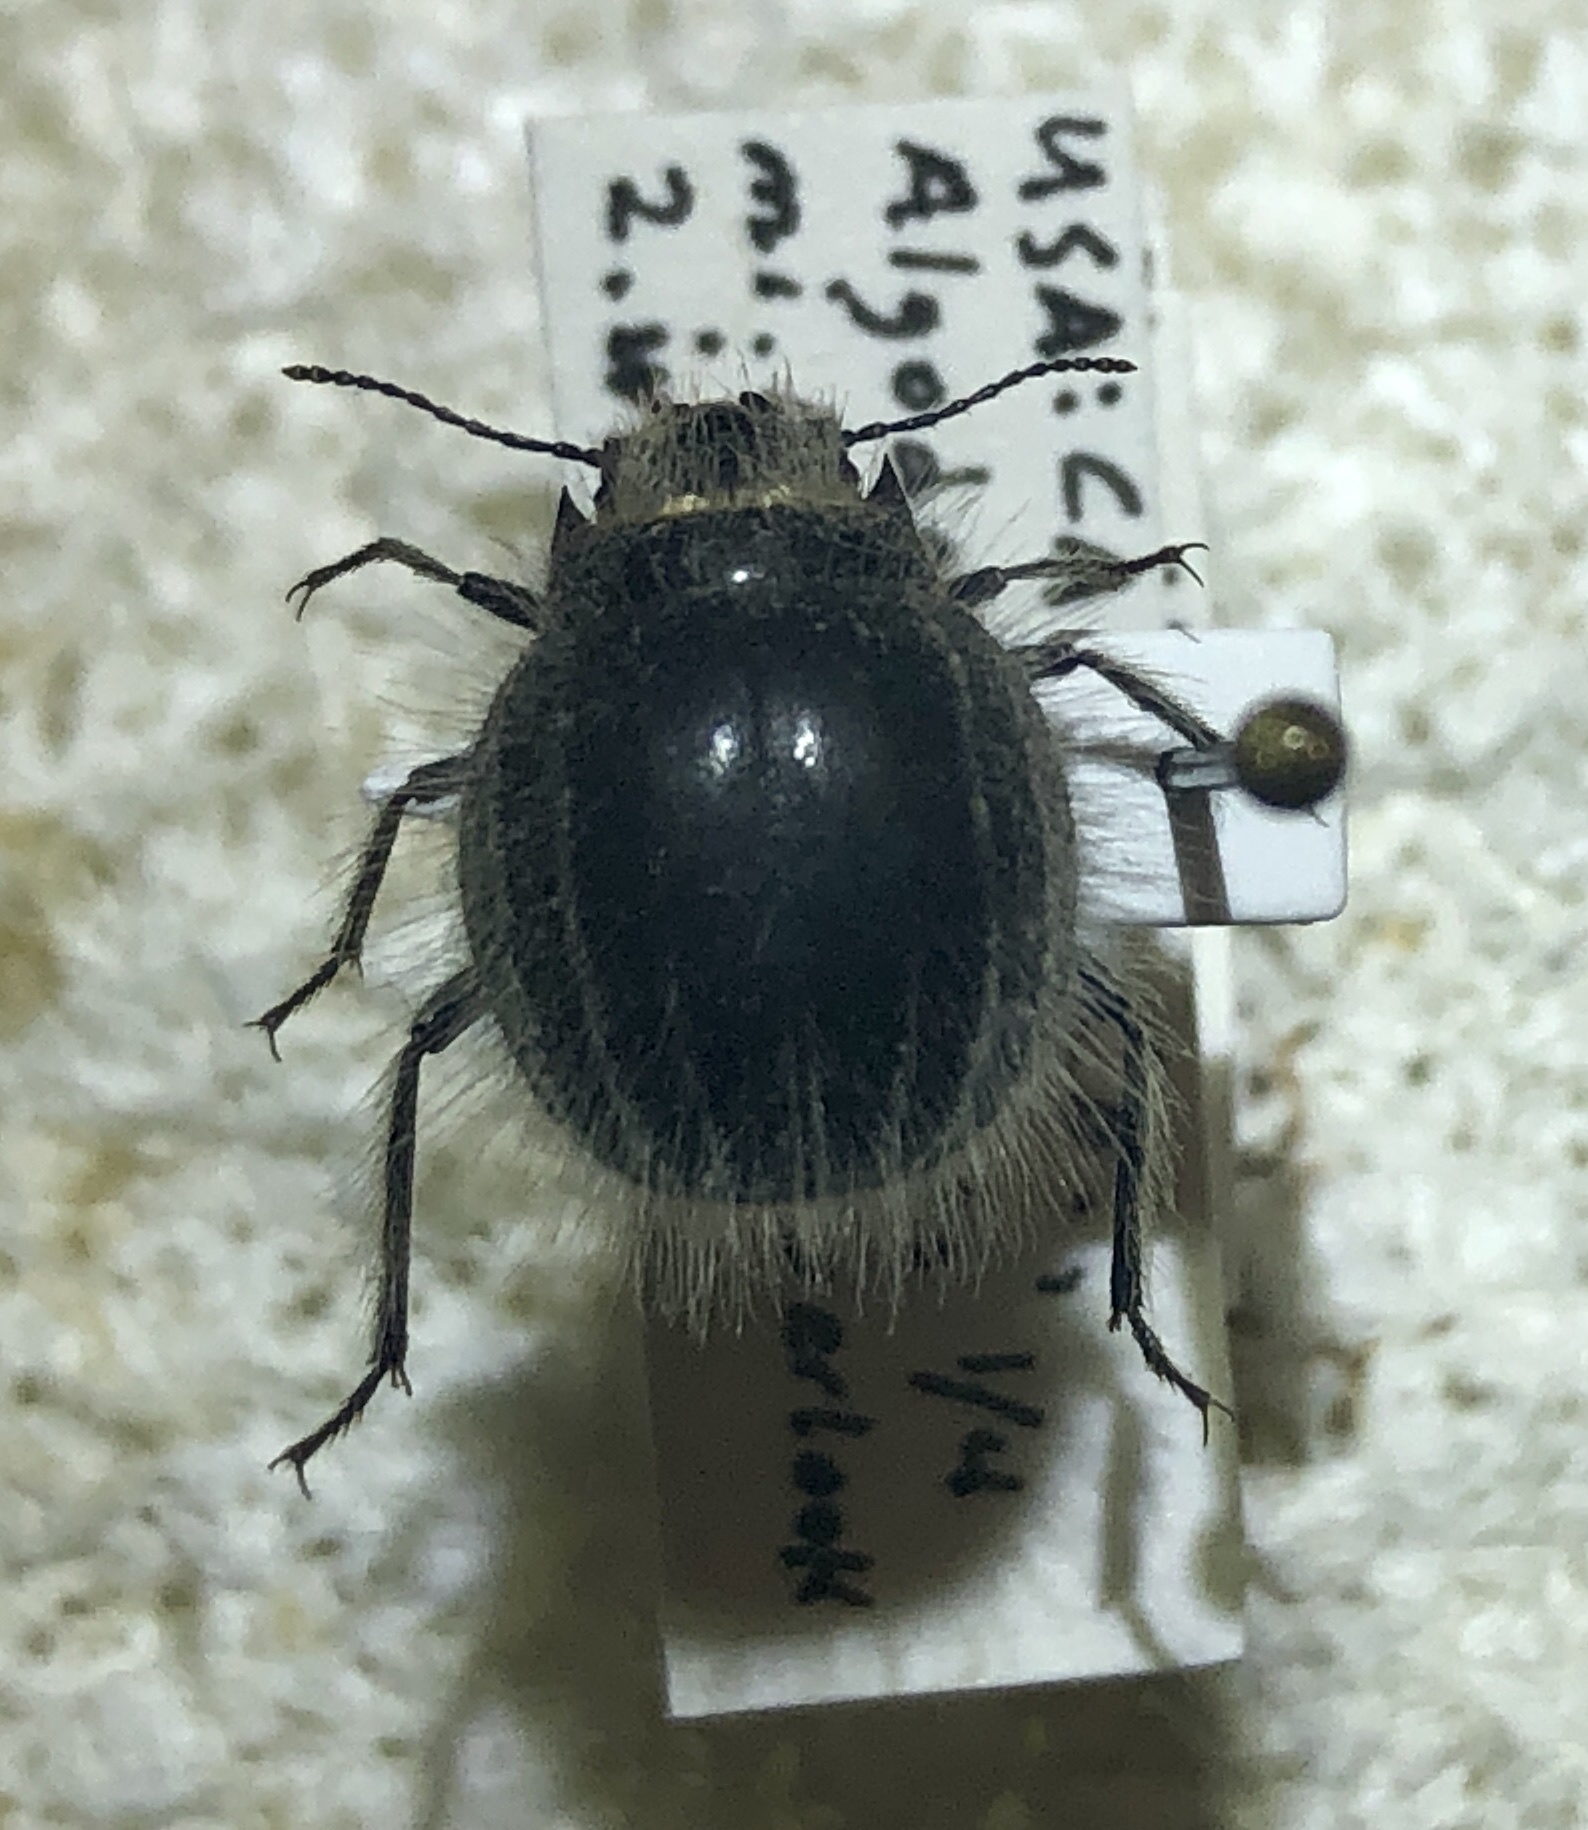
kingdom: Animalia
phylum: Arthropoda
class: Insecta
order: Coleoptera
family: Tenebrionidae
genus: Edrotes
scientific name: Edrotes ventricosus
